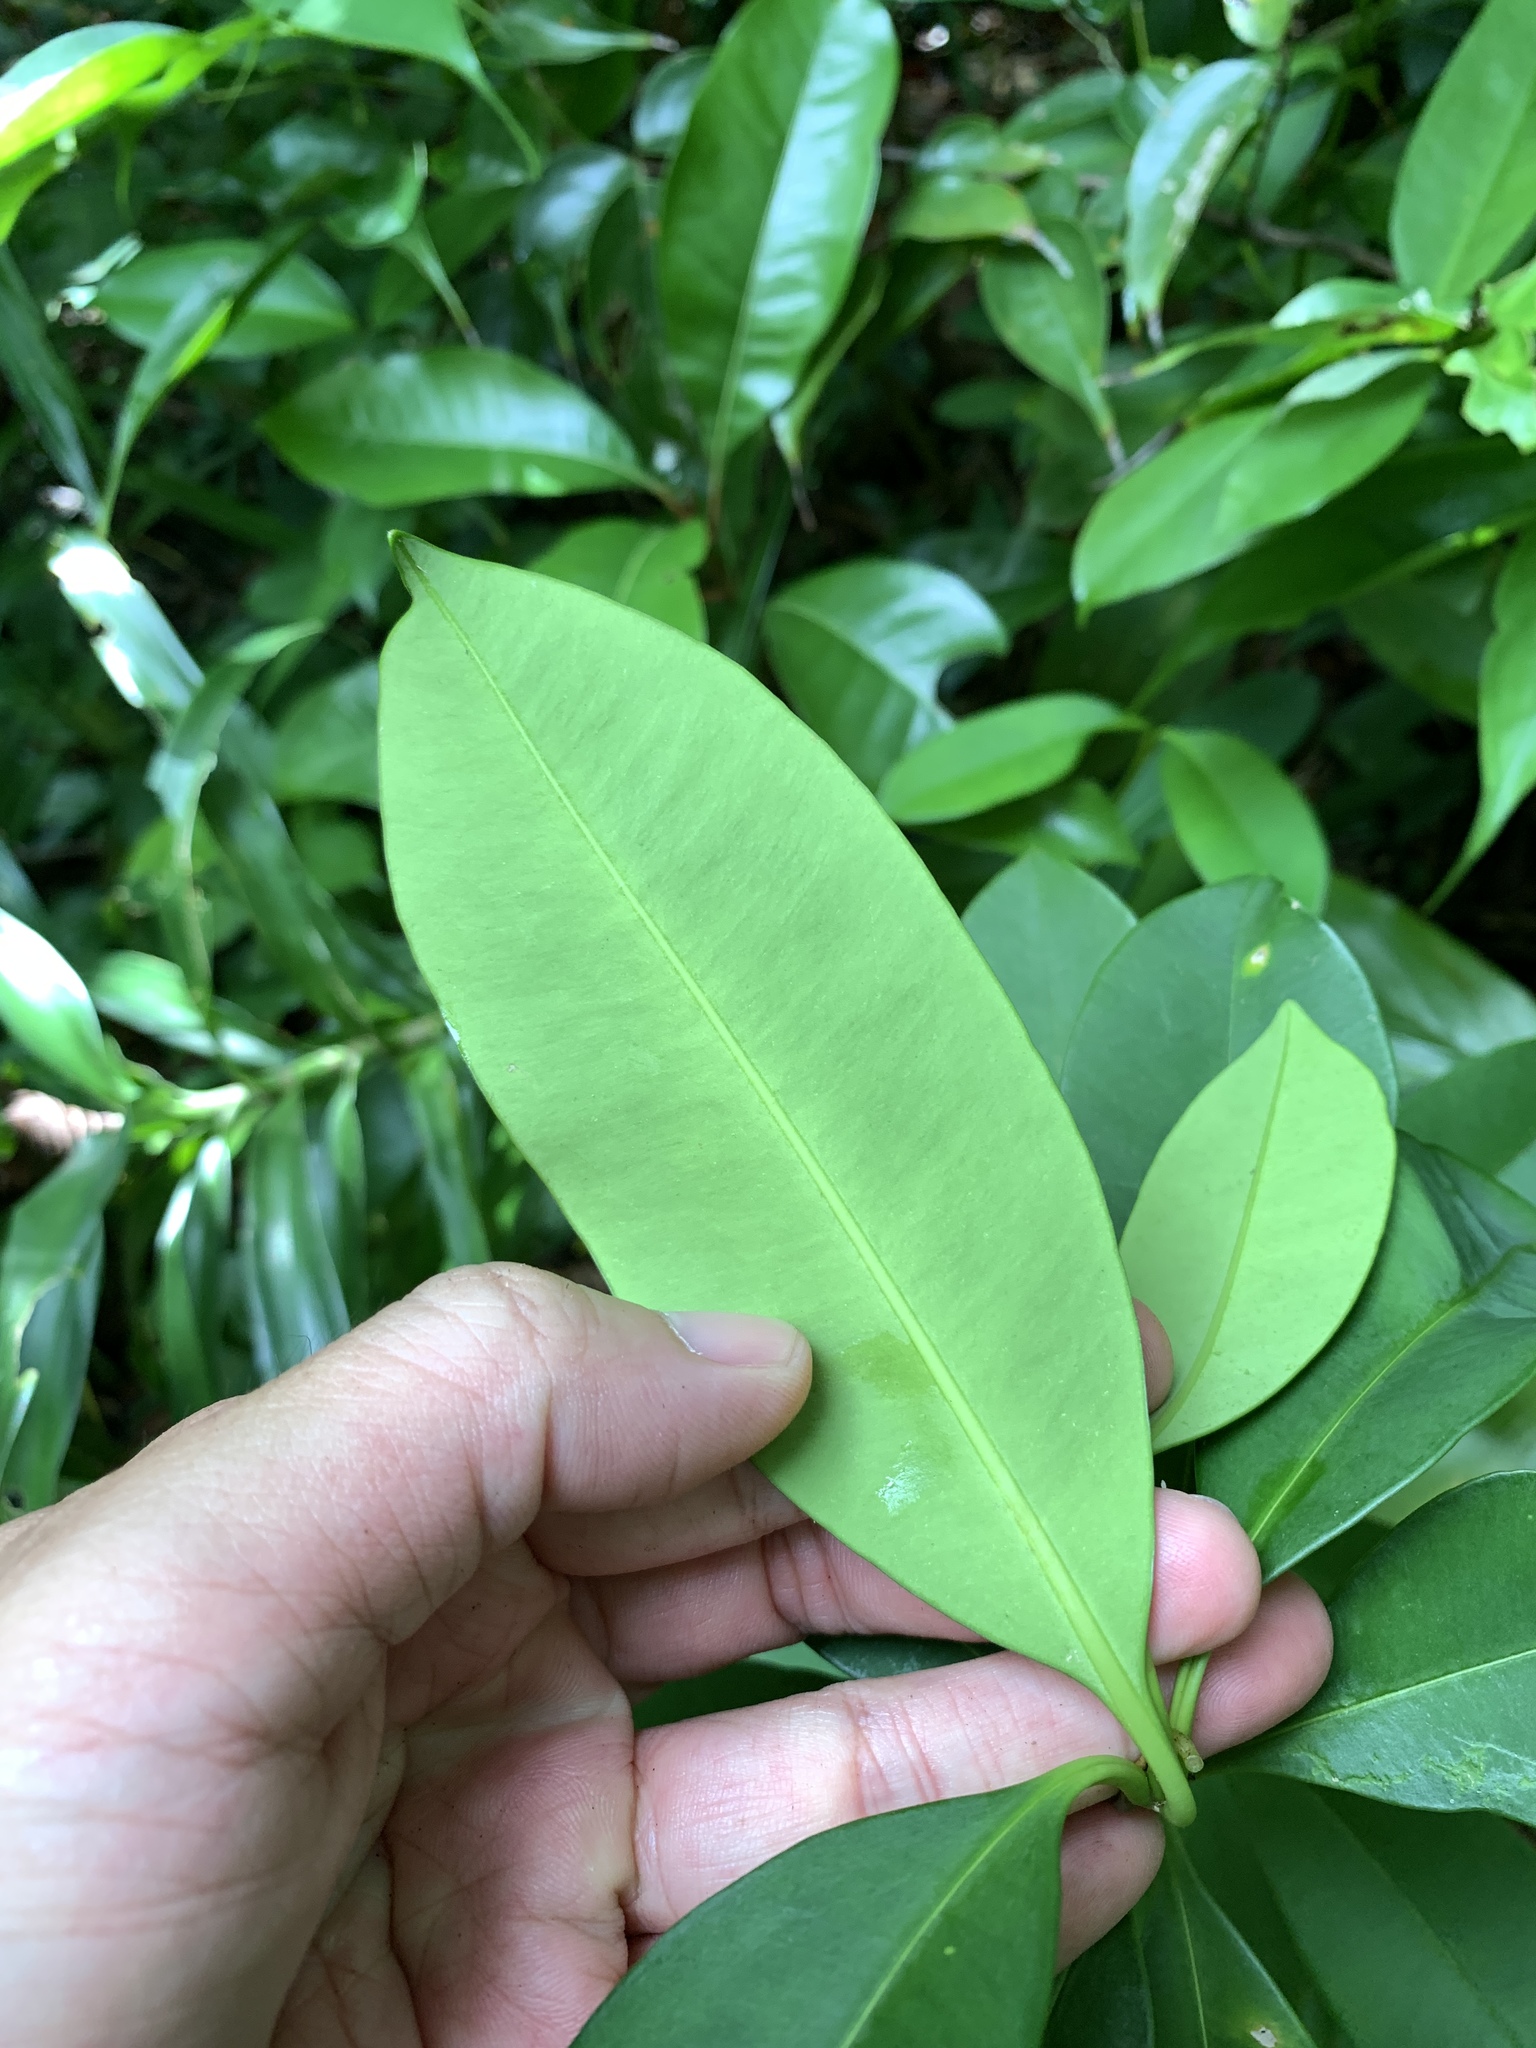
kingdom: Plantae
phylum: Tracheophyta
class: Magnoliopsida
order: Gentianales
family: Apocynaceae
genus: Alyxia
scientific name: Alyxia monticola
